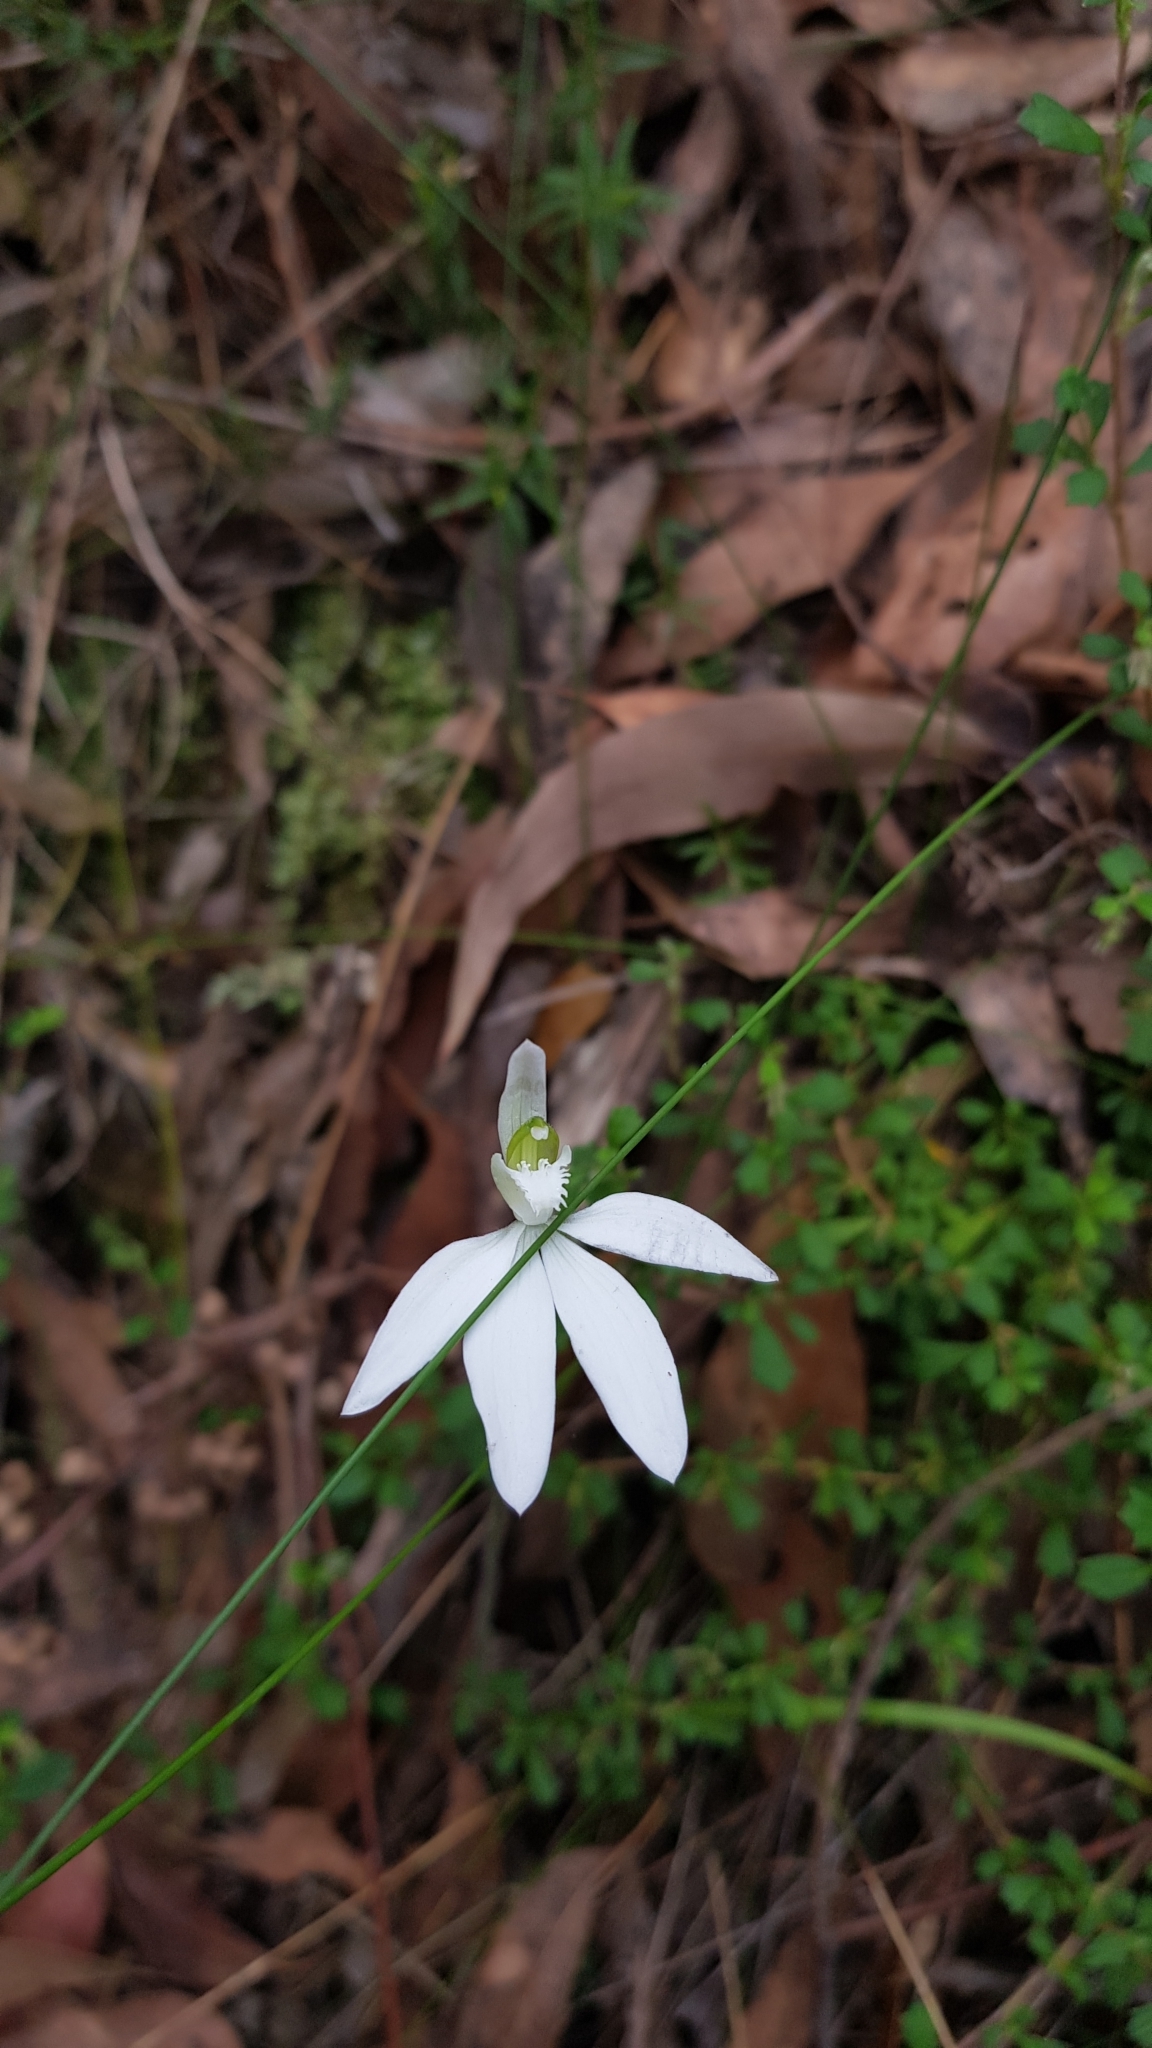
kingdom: Plantae
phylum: Tracheophyta
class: Liliopsida
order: Asparagales
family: Orchidaceae
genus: Caladenia
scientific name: Caladenia catenata
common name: White caladenia
